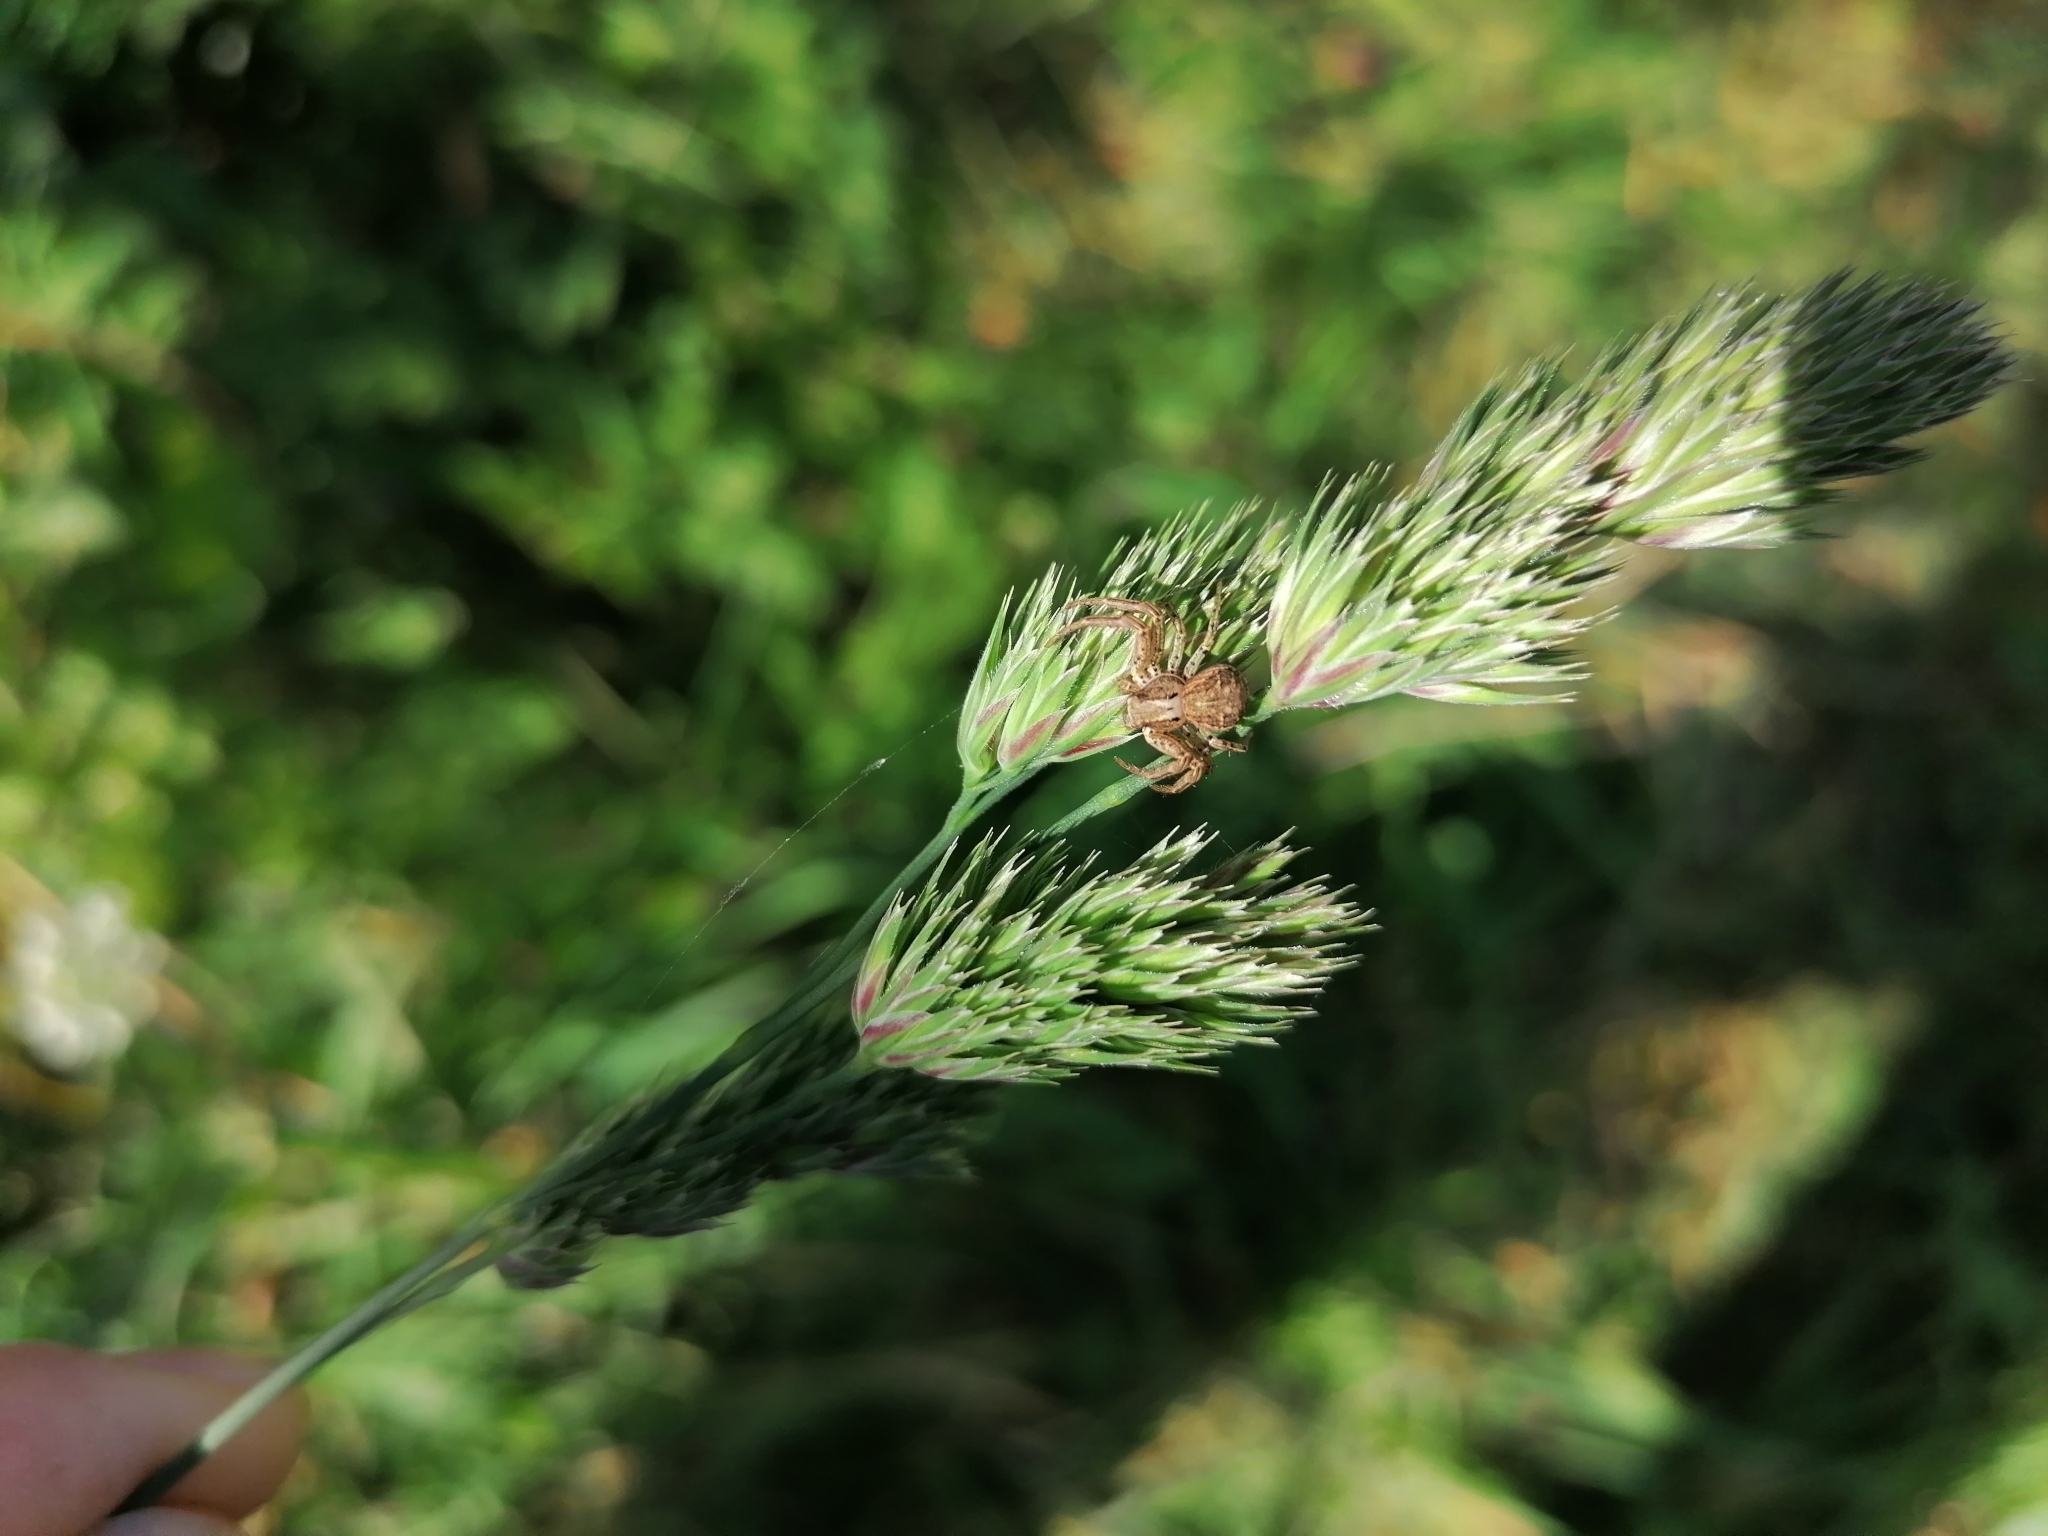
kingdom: Plantae
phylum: Tracheophyta
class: Liliopsida
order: Poales
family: Poaceae
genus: Dactylis
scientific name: Dactylis glomerata
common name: Orchardgrass
